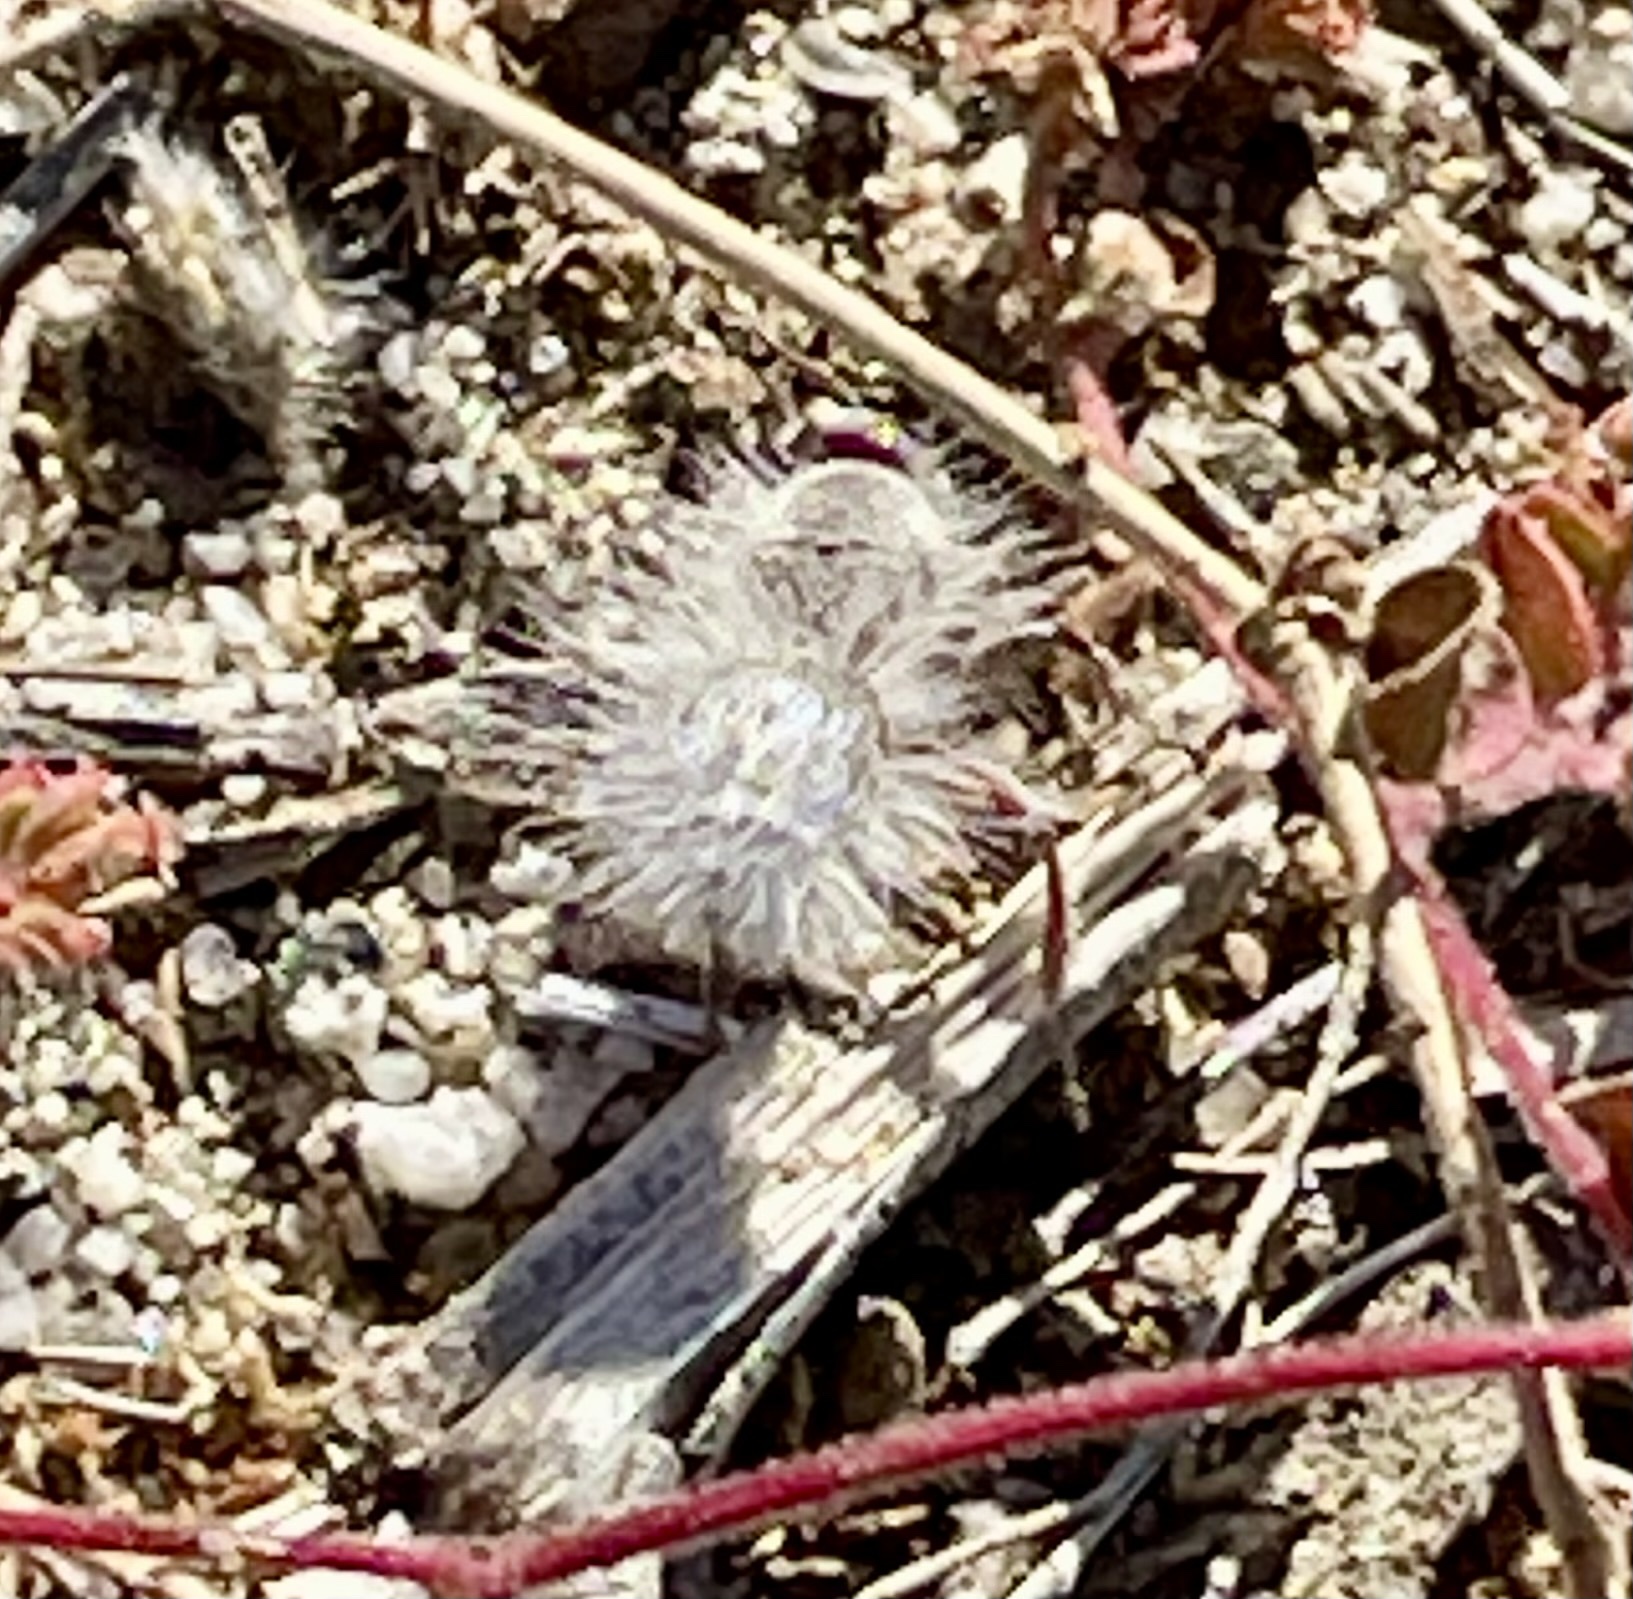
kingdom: Animalia
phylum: Arthropoda
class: Insecta
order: Hymenoptera
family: Mutillidae
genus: Dasymutilla
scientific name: Dasymutilla gloriosa
